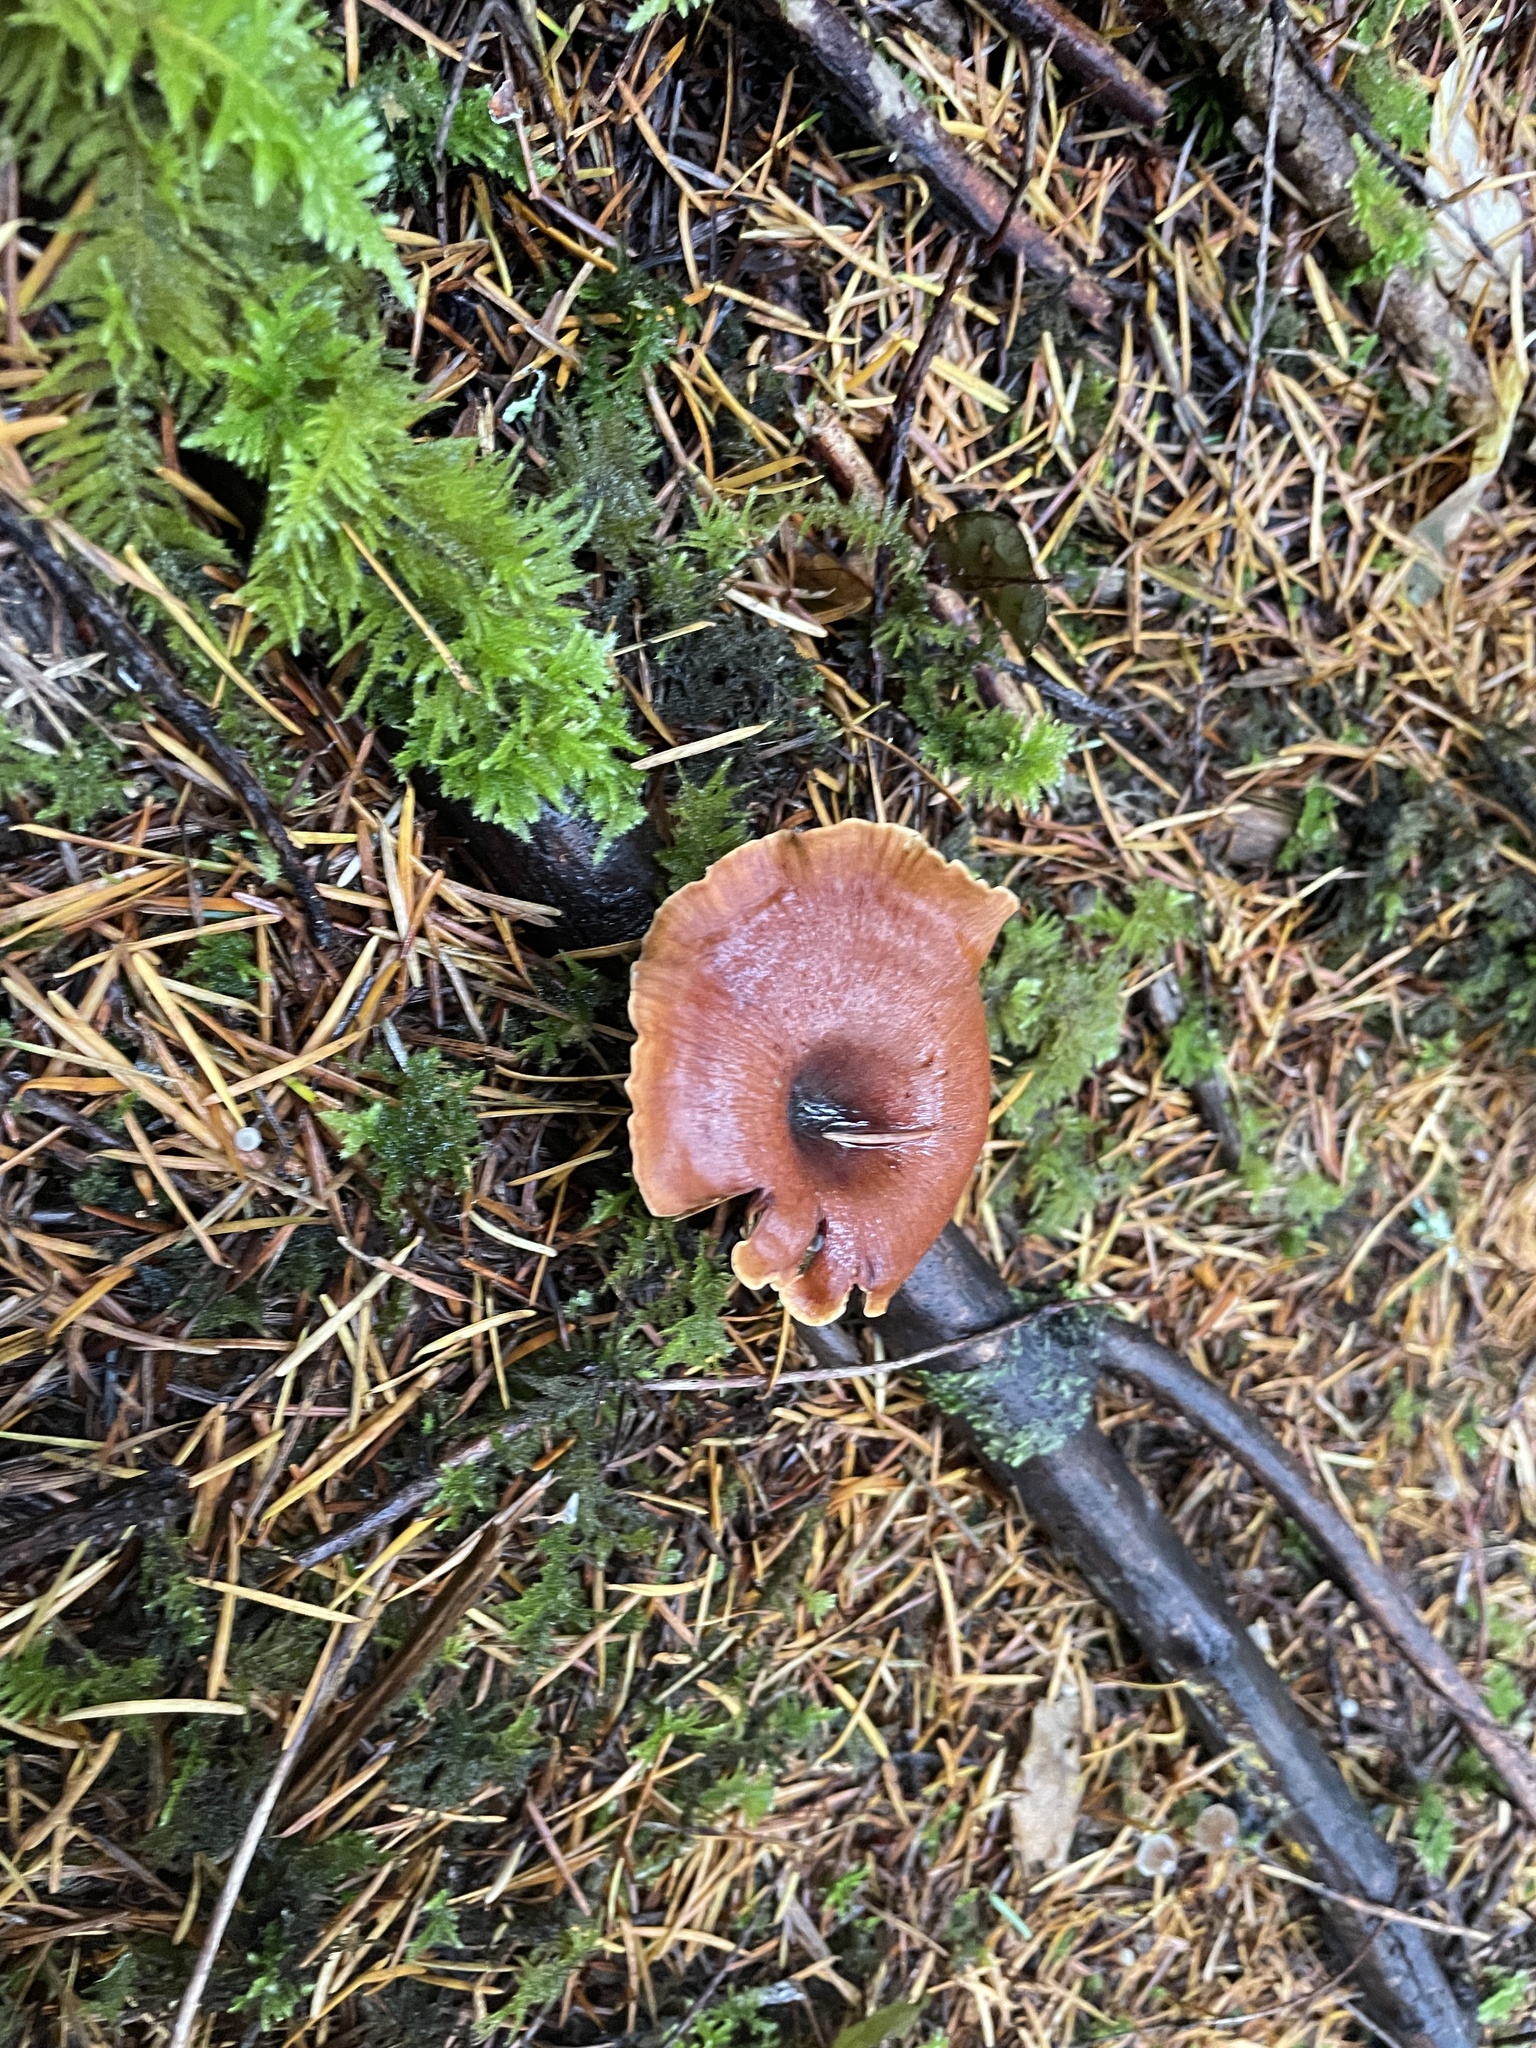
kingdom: Fungi
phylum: Basidiomycota
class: Agaricomycetes
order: Polyporales
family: Polyporaceae
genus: Picipes
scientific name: Picipes badius
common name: Bay polypore
